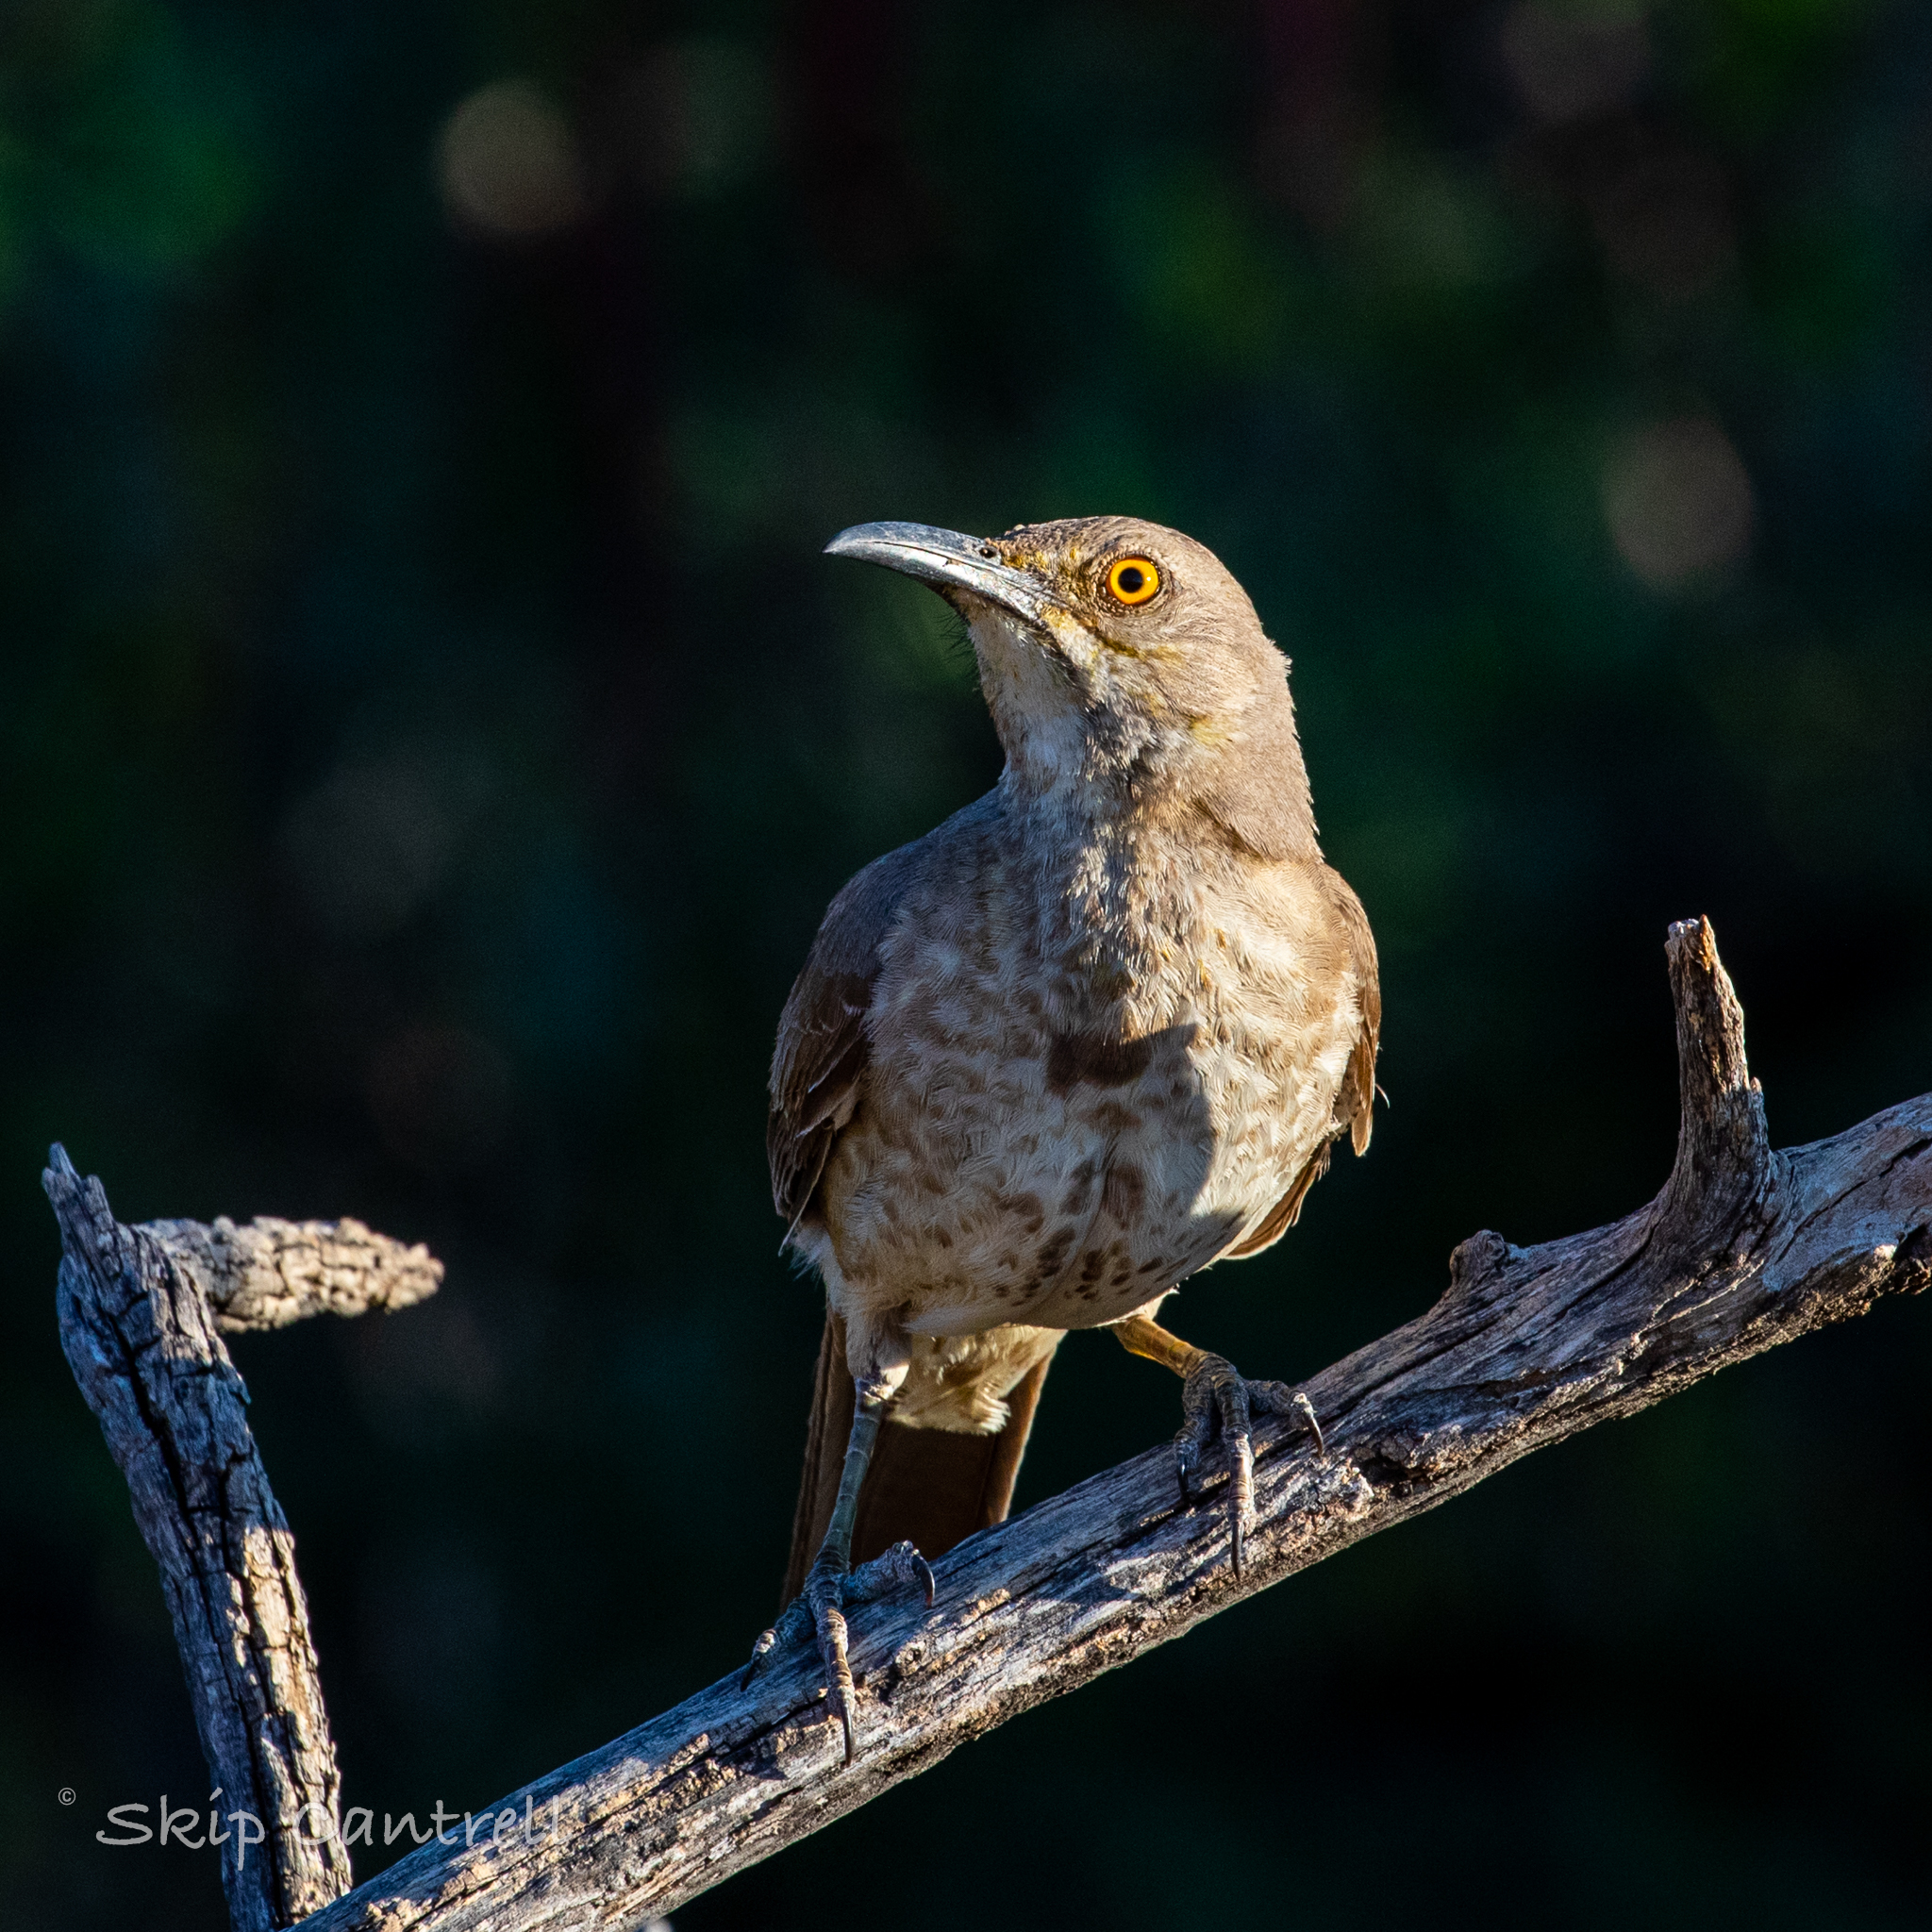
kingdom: Animalia
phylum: Chordata
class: Aves
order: Passeriformes
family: Mimidae
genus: Toxostoma
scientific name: Toxostoma curvirostre
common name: Curve-billed thrasher
